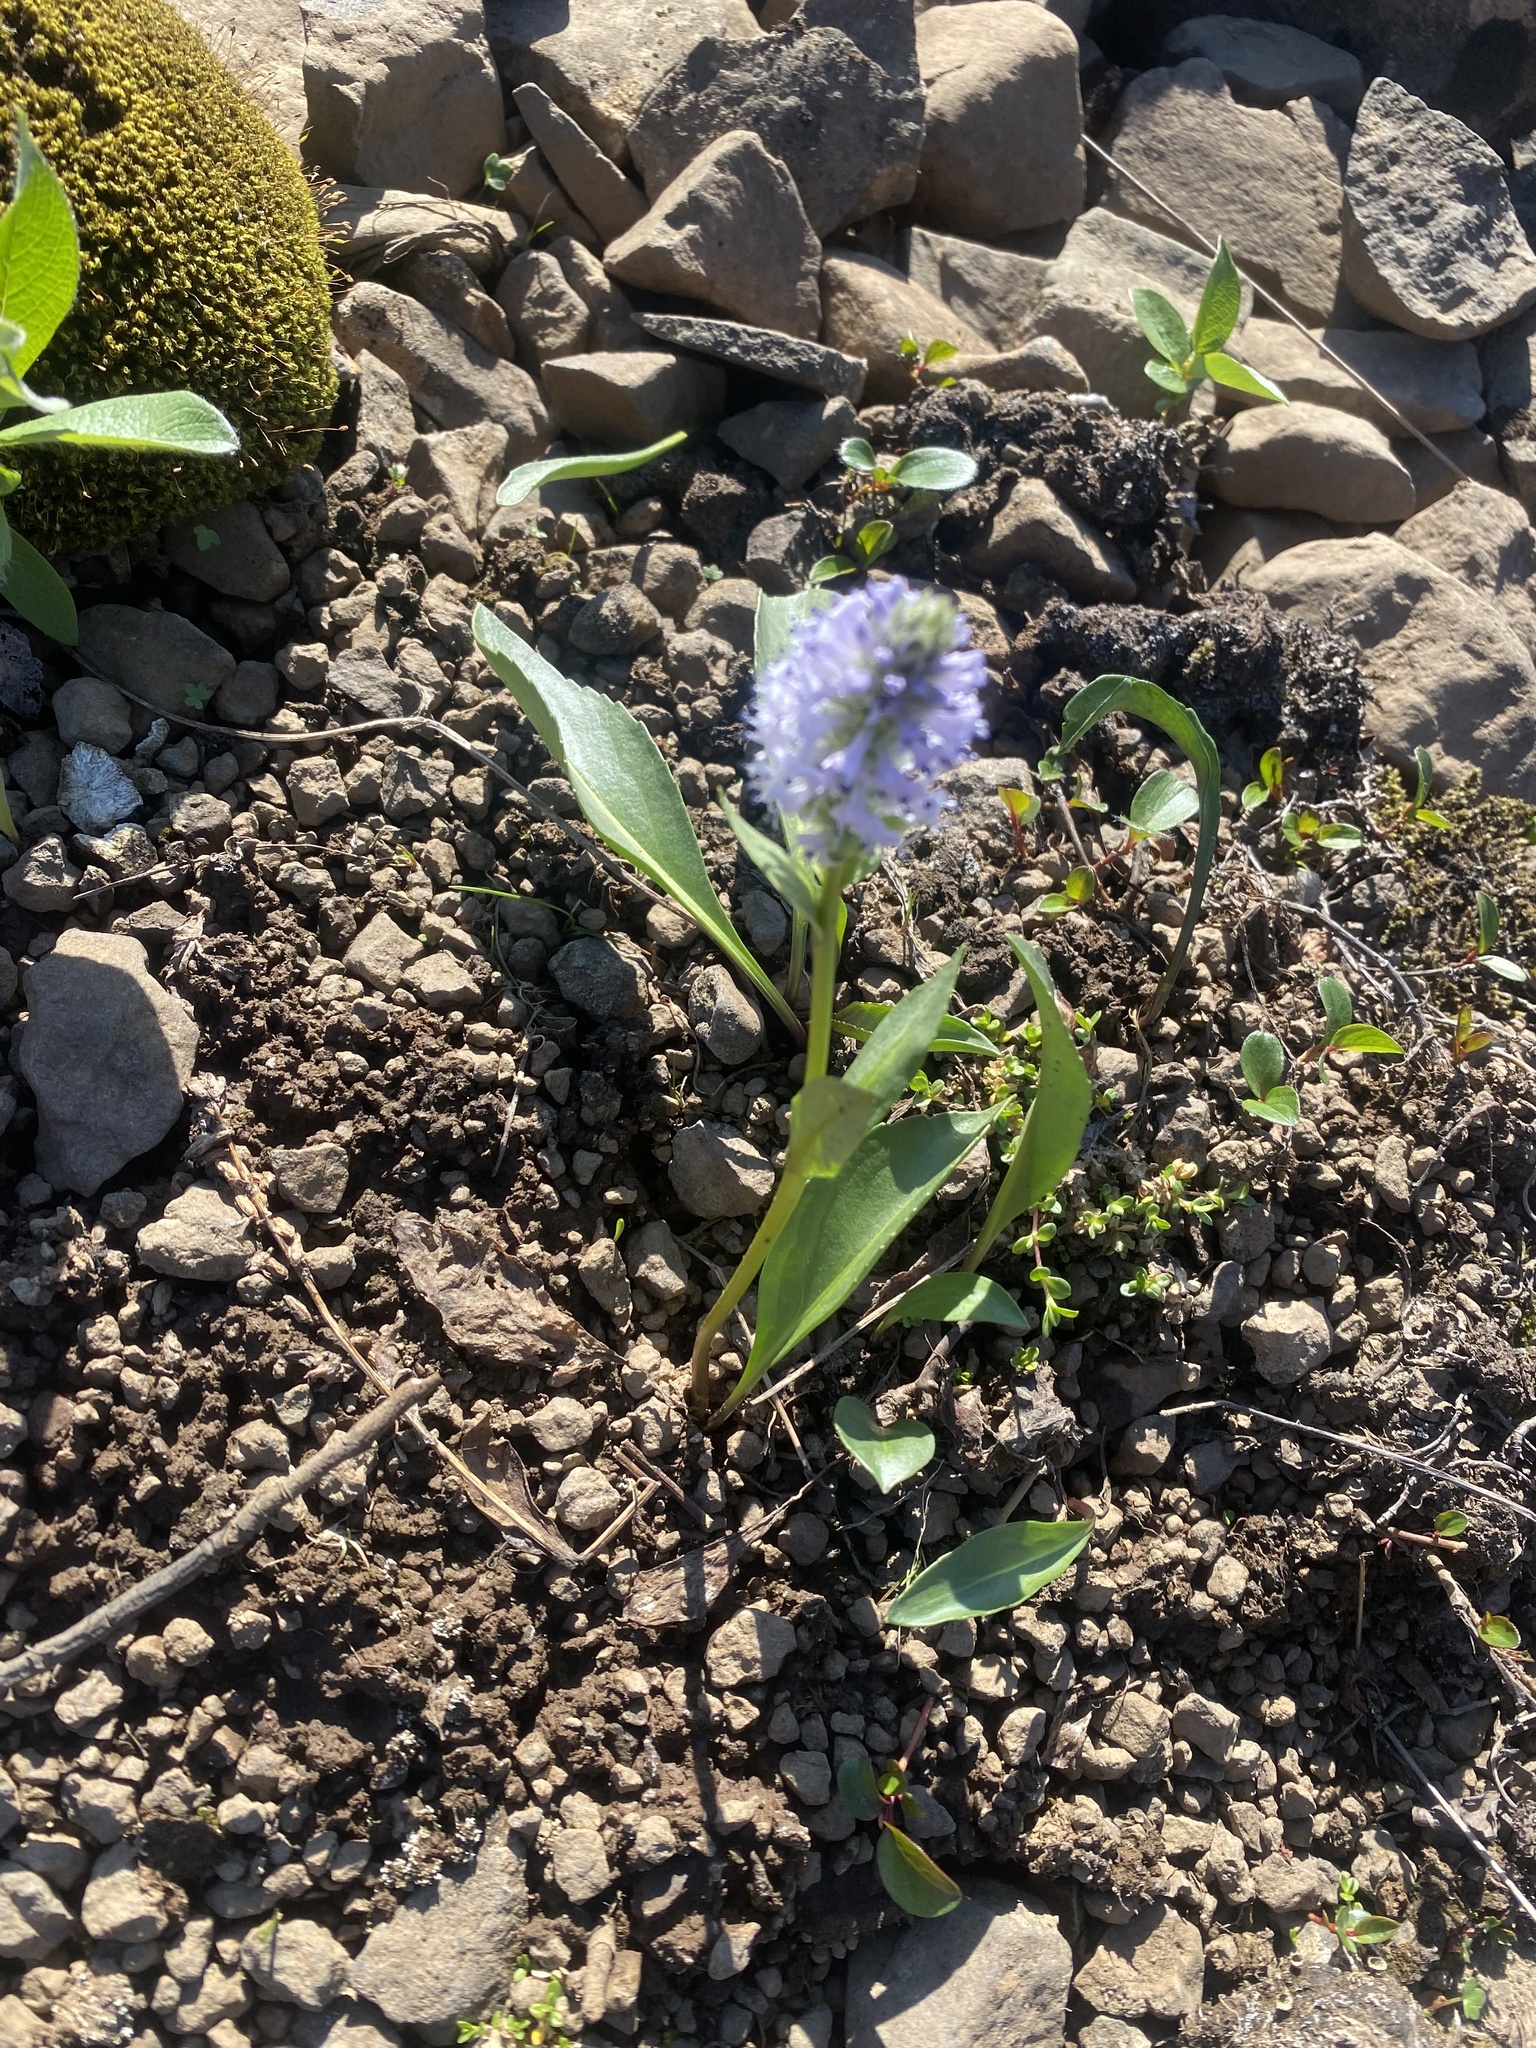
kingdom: Plantae
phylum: Tracheophyta
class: Magnoliopsida
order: Lamiales
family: Plantaginaceae
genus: Lagotis
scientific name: Lagotis glauca
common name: Glaucous weaselsnout
